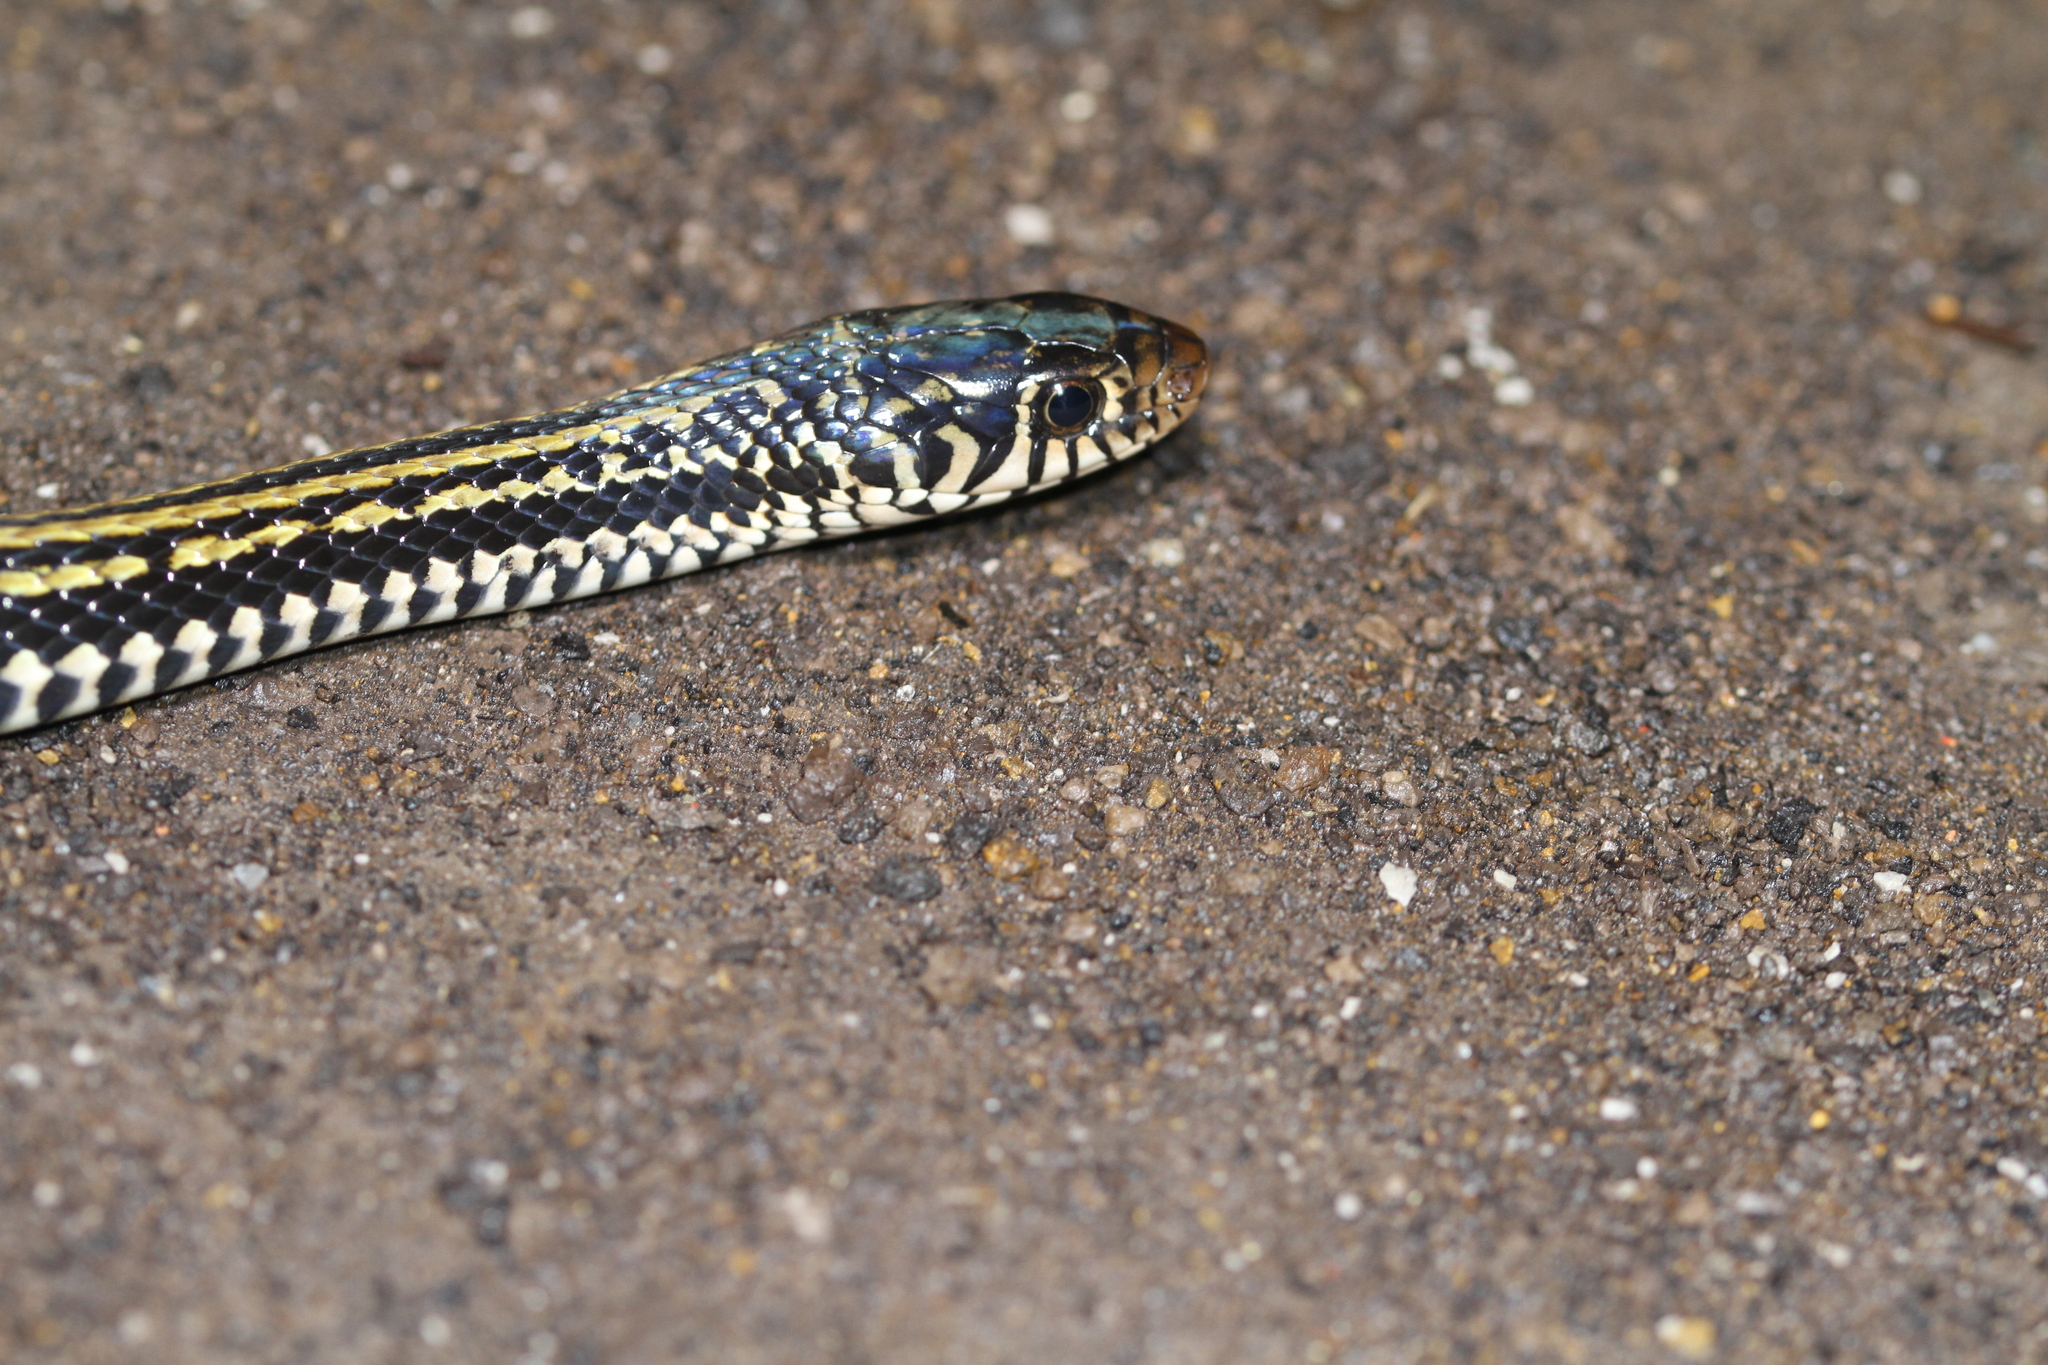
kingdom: Animalia
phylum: Chordata
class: Squamata
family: Colubridae
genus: Xenochrophis
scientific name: Xenochrophis vittatus
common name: Striped keelback
